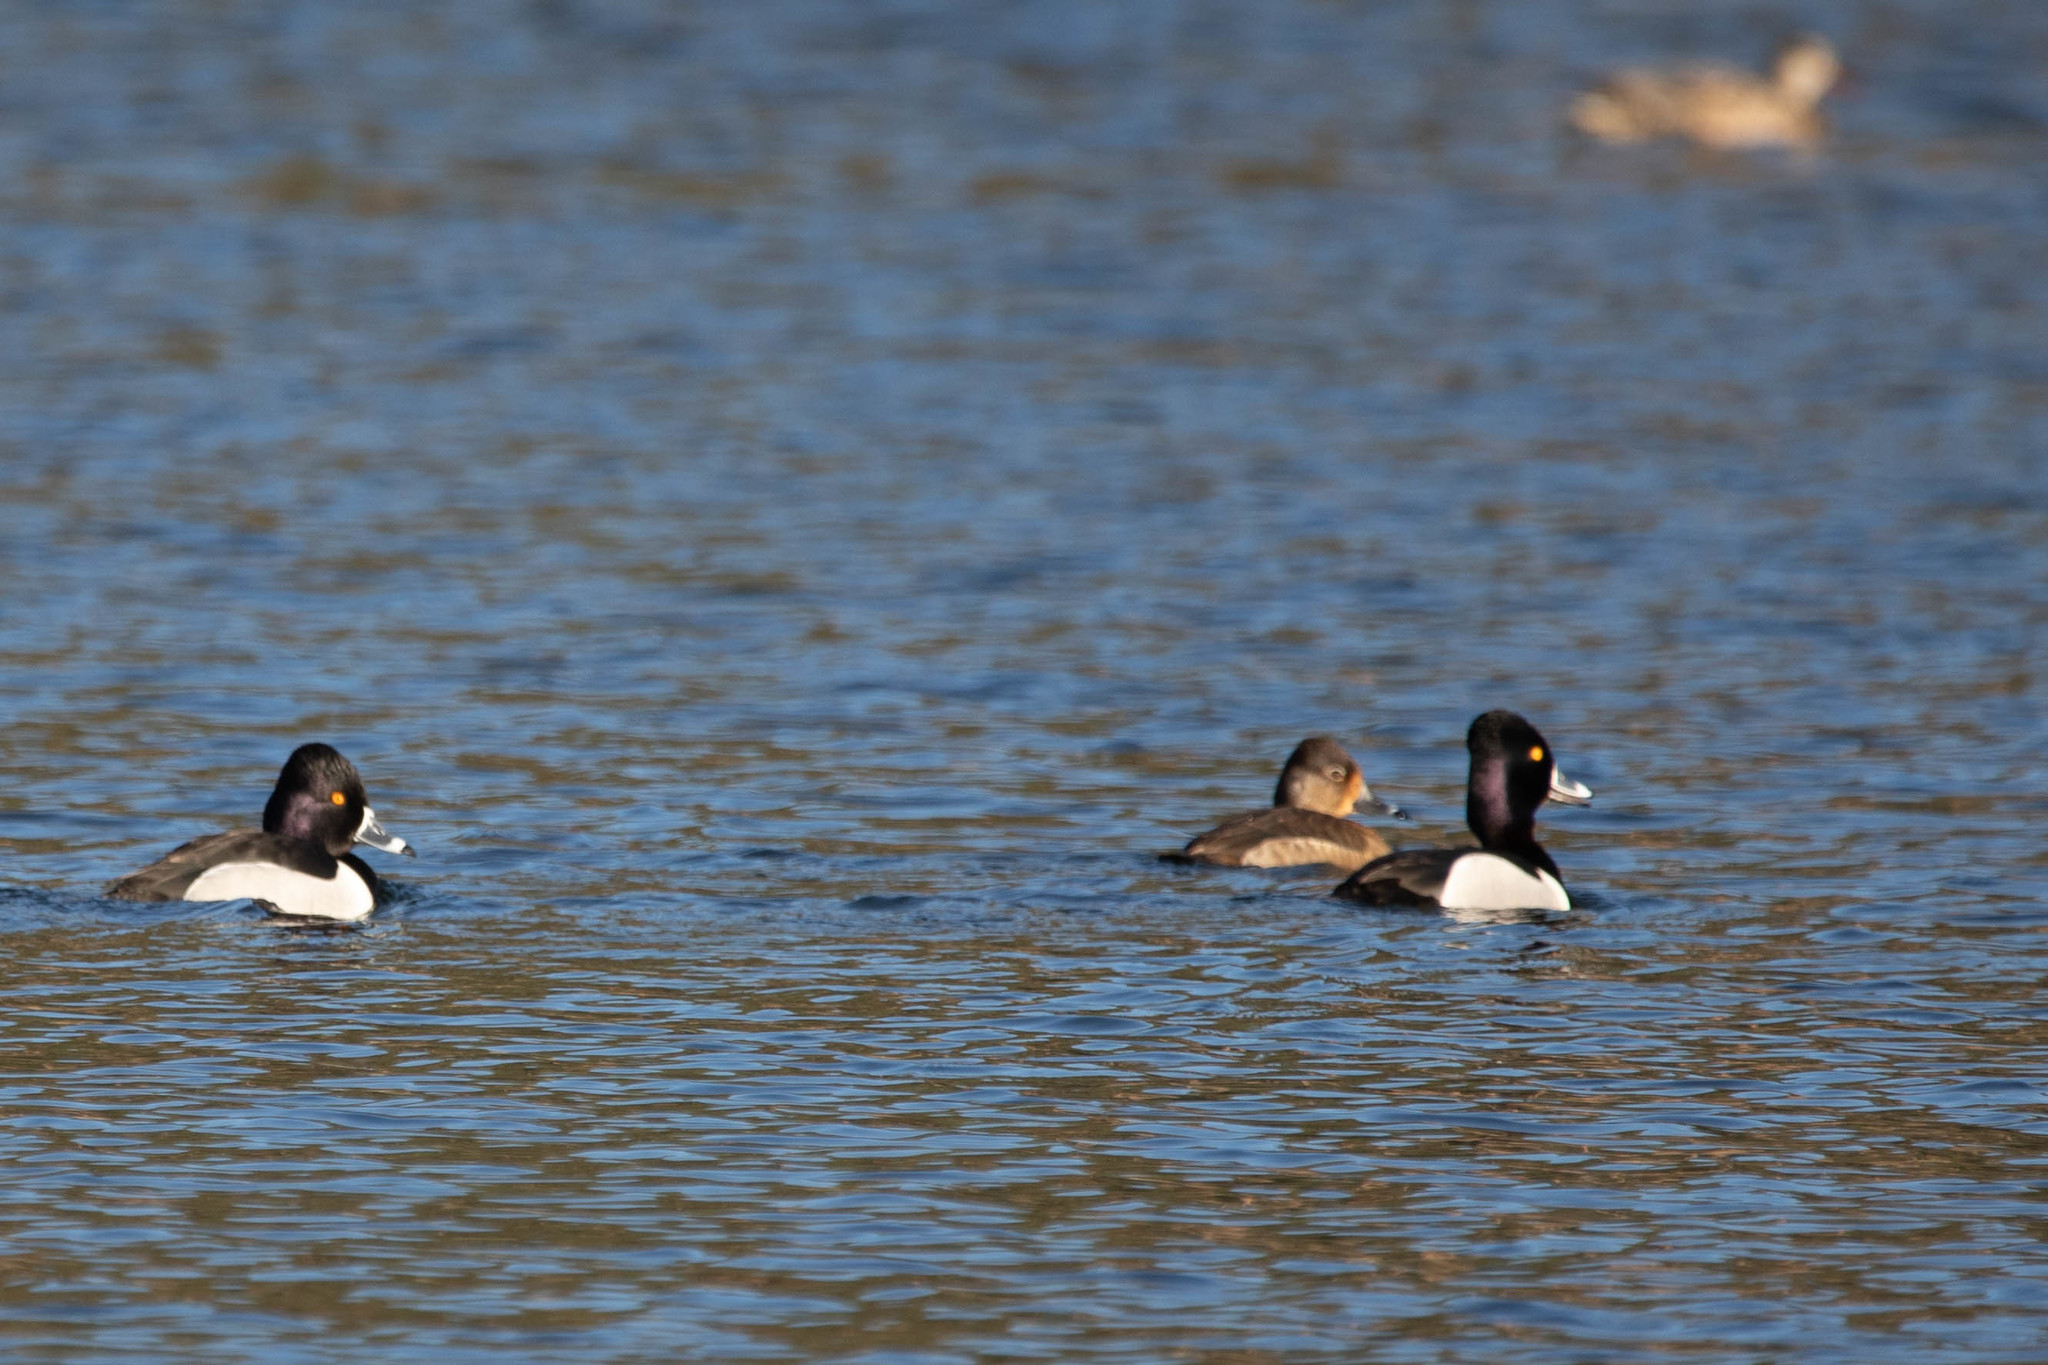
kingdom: Animalia
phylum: Chordata
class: Aves
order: Anseriformes
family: Anatidae
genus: Aythya
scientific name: Aythya collaris
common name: Ring-necked duck
